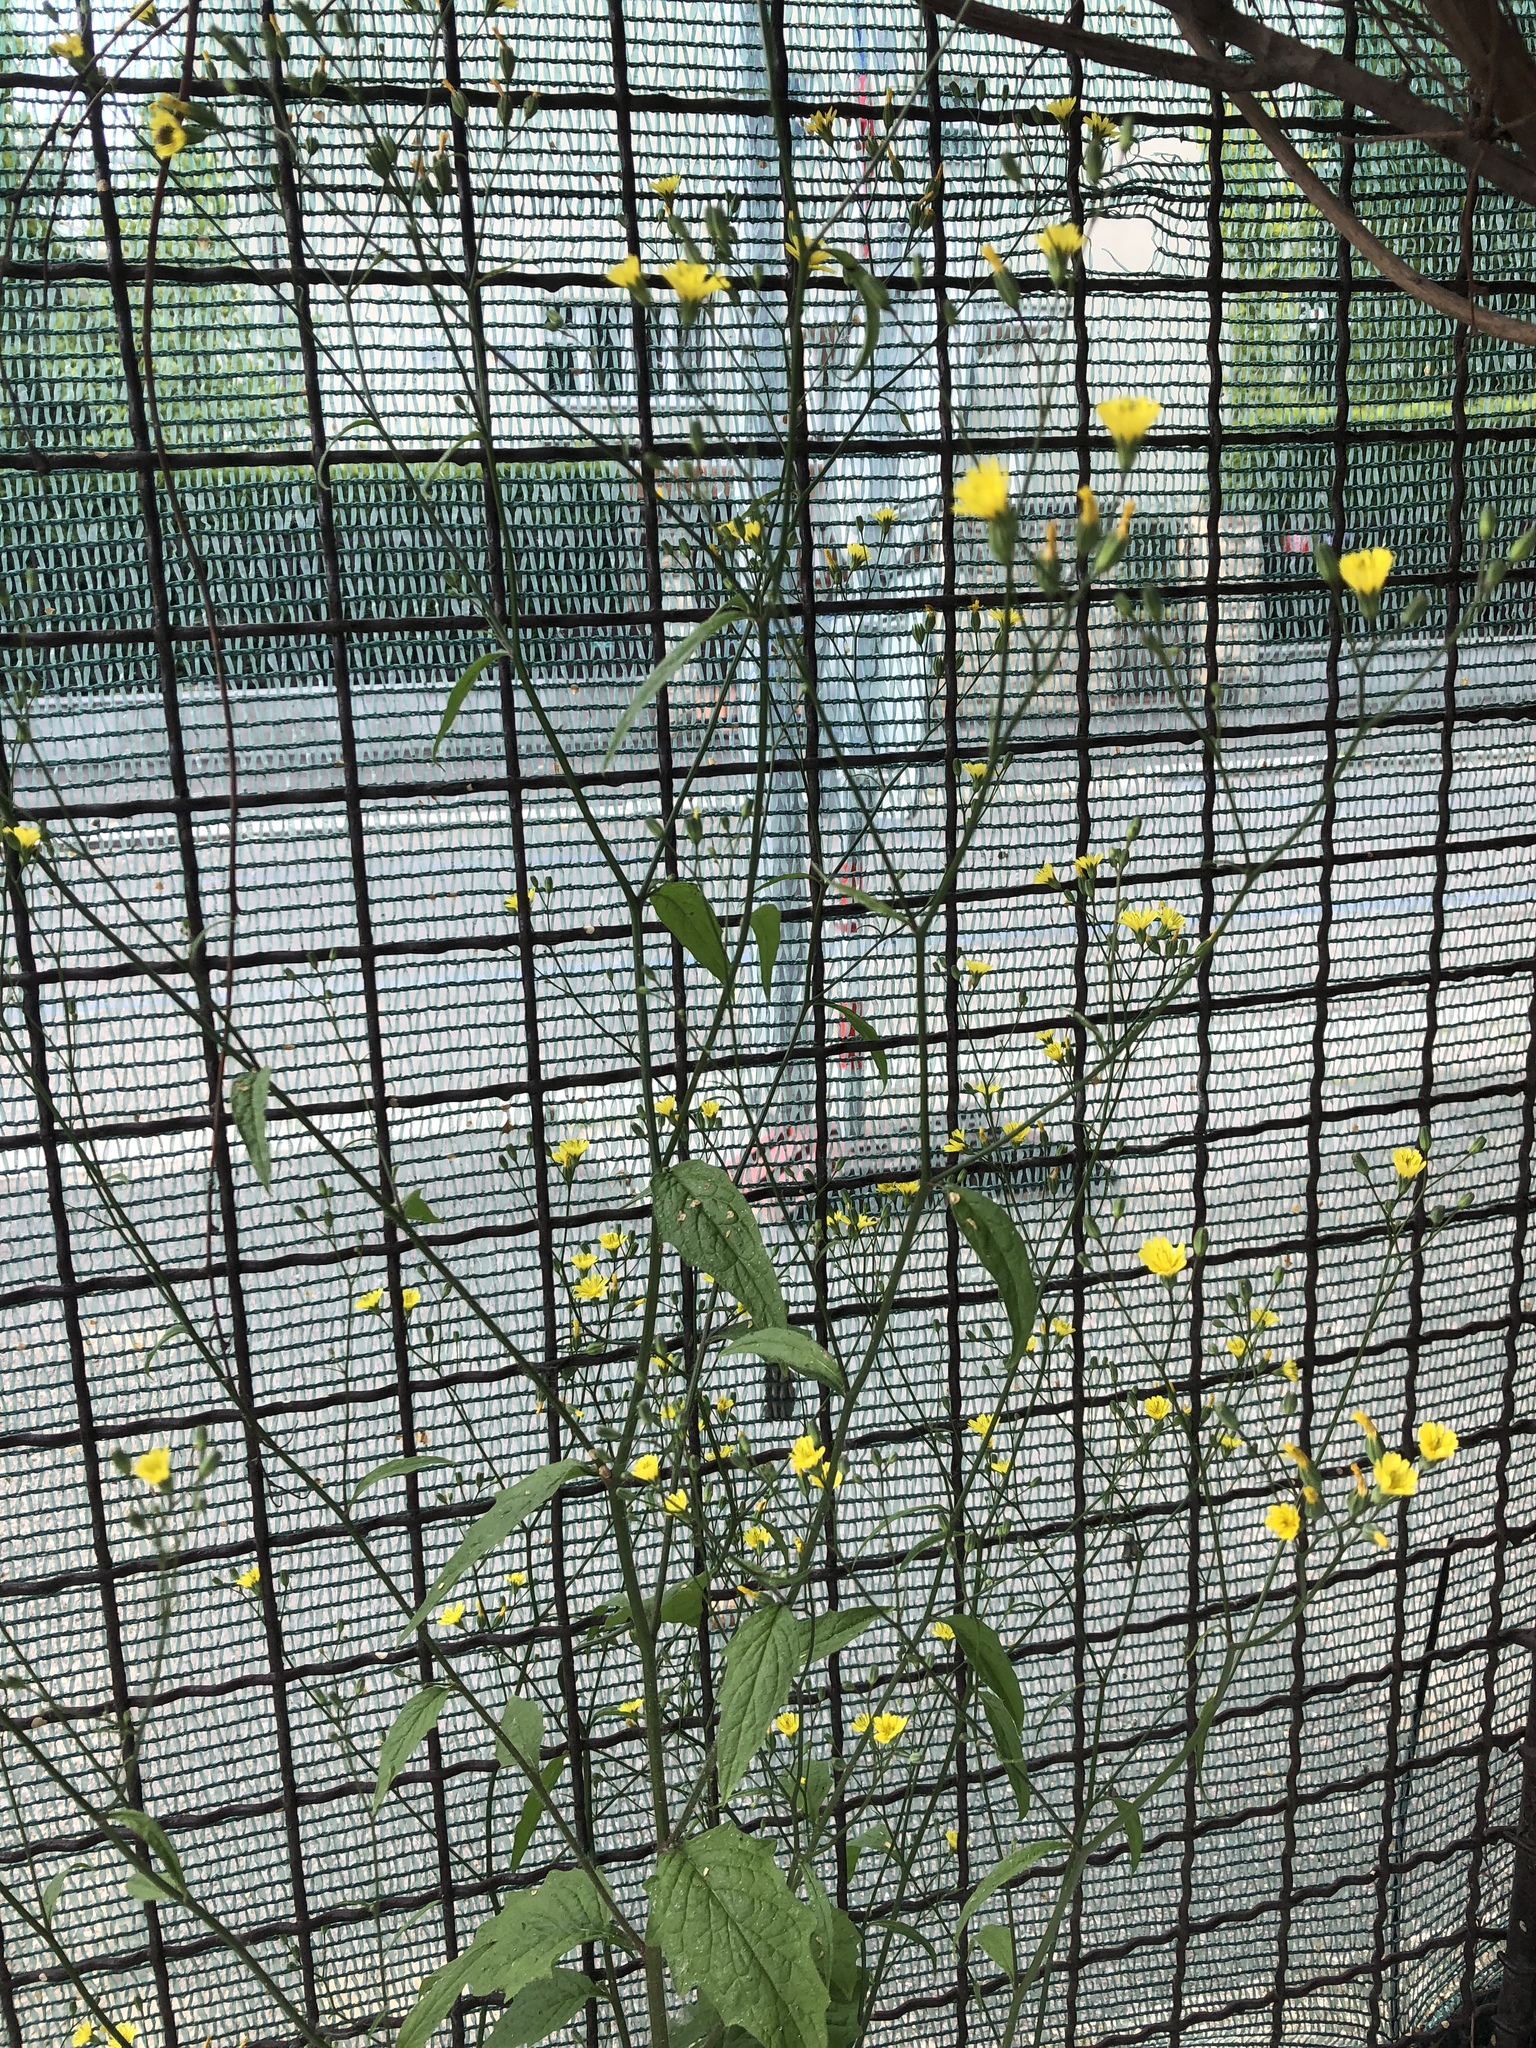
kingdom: Plantae
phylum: Tracheophyta
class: Magnoliopsida
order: Asterales
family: Asteraceae
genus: Lapsana
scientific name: Lapsana communis
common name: Nipplewort
